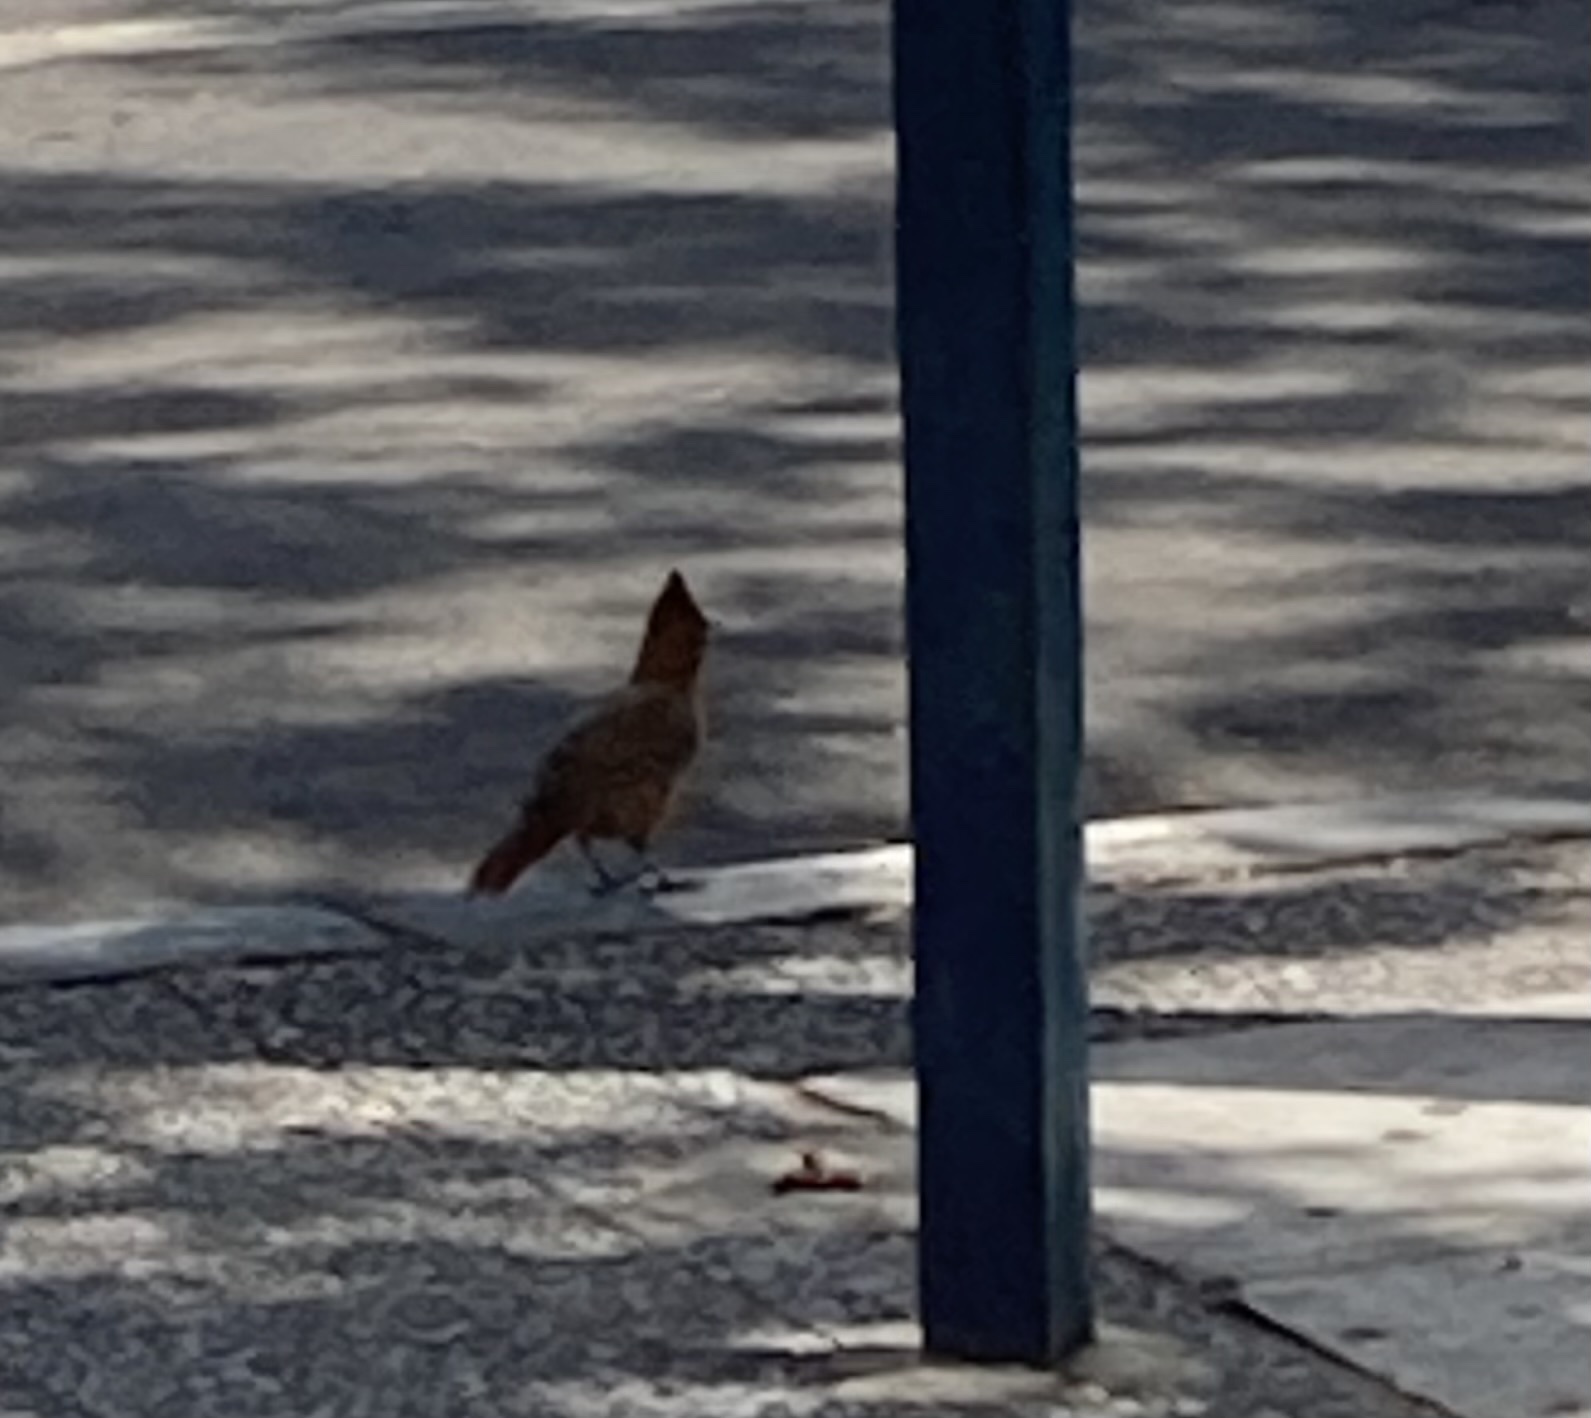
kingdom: Animalia
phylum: Chordata
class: Aves
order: Passeriformes
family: Furnariidae
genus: Pseudoseisura
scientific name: Pseudoseisura lophotes
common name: Brown cacholote
